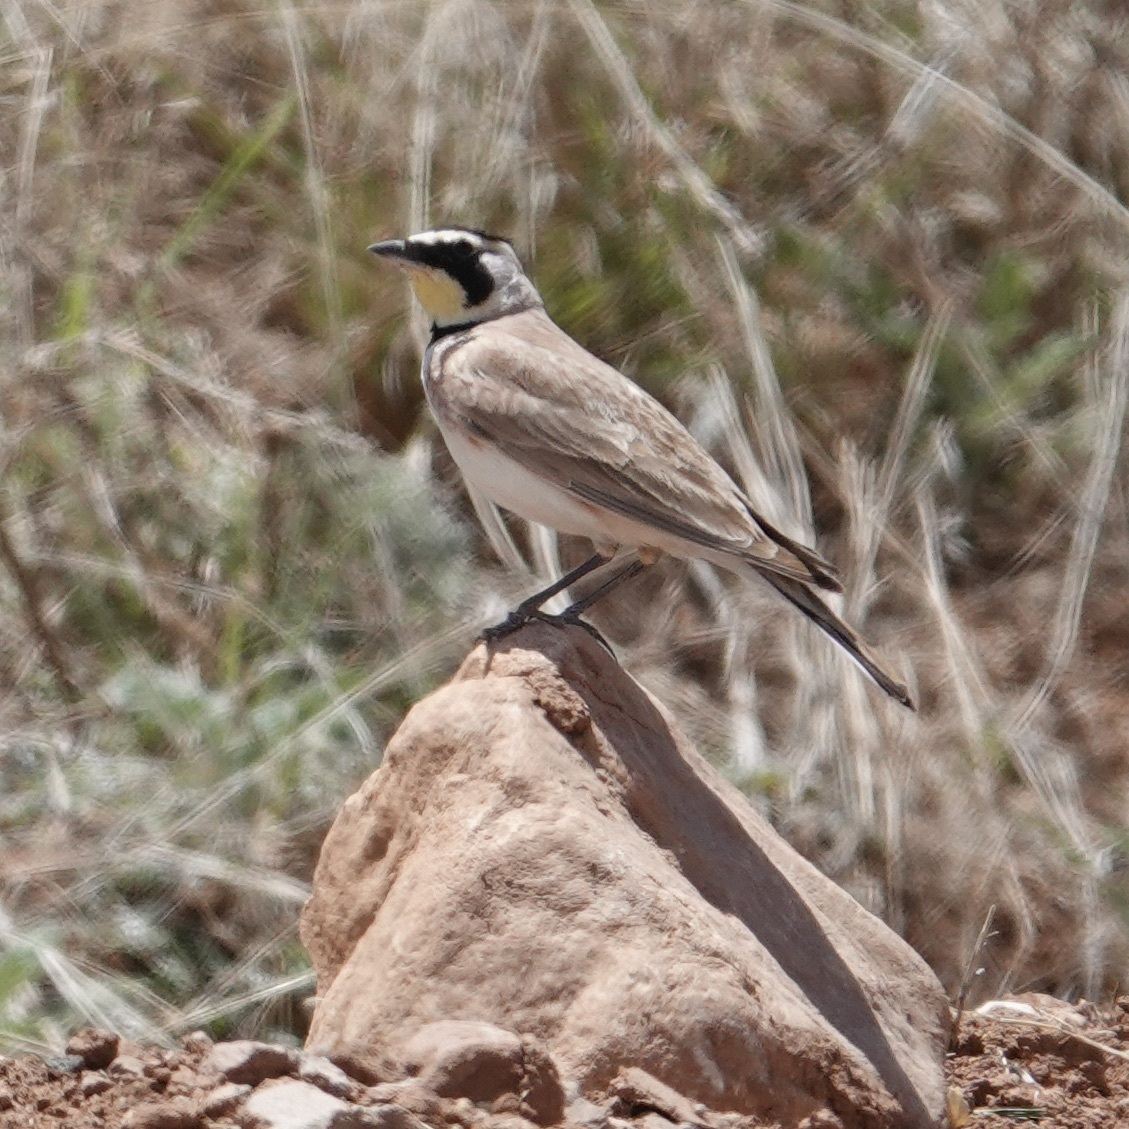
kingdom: Animalia
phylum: Chordata
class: Aves
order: Passeriformes
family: Alaudidae
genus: Eremophila
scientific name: Eremophila alpestris
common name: Horned lark
